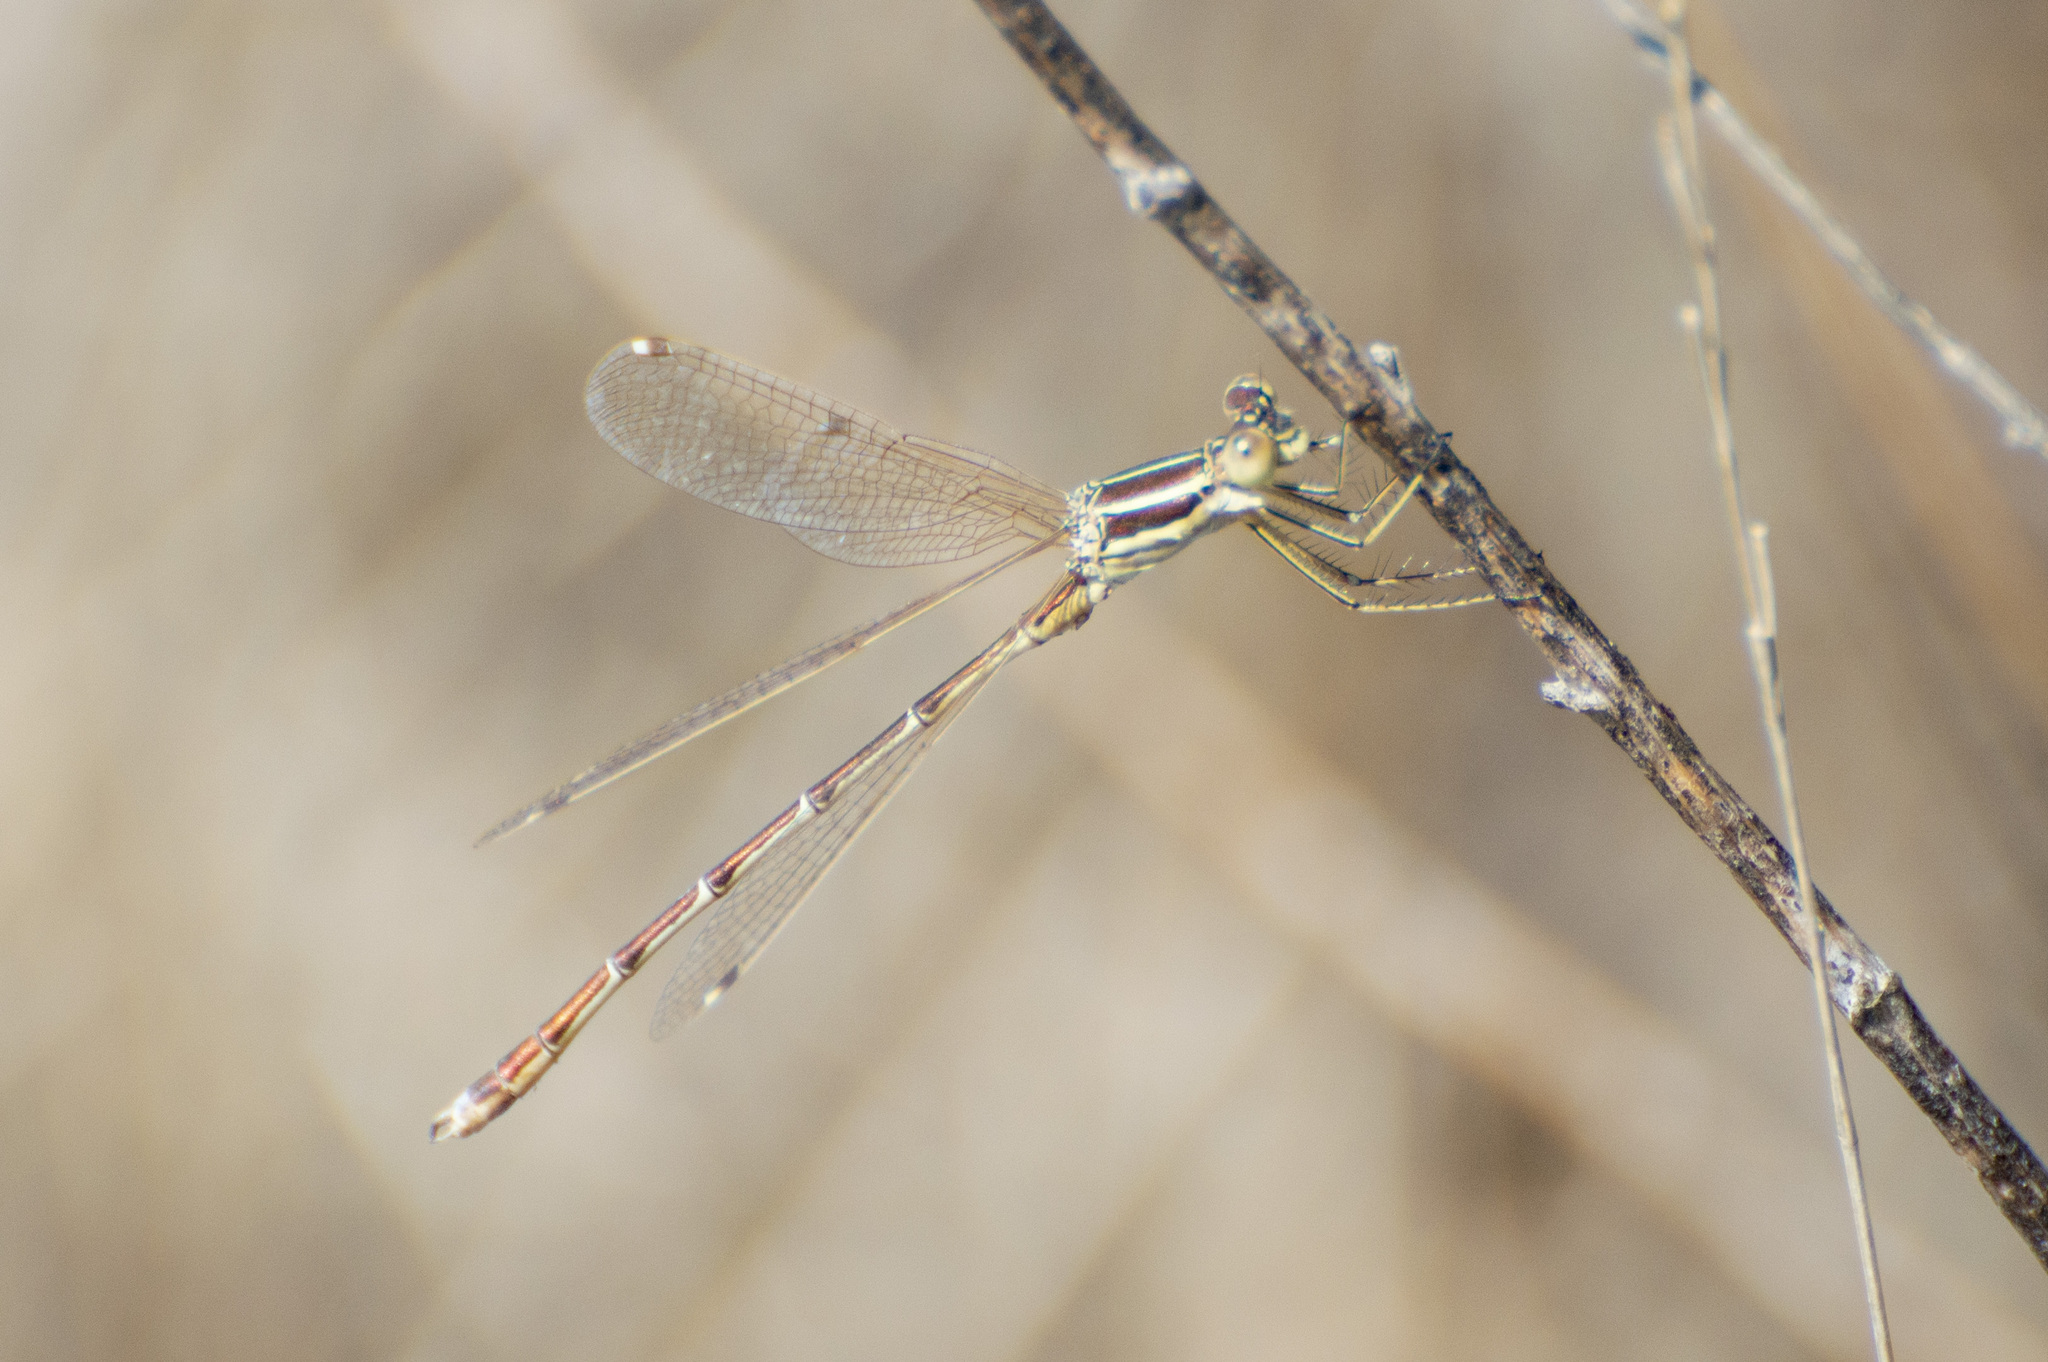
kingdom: Animalia
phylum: Arthropoda
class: Insecta
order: Odonata
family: Lestidae
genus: Lestes
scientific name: Lestes barbarus
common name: Migrant spreadwing
